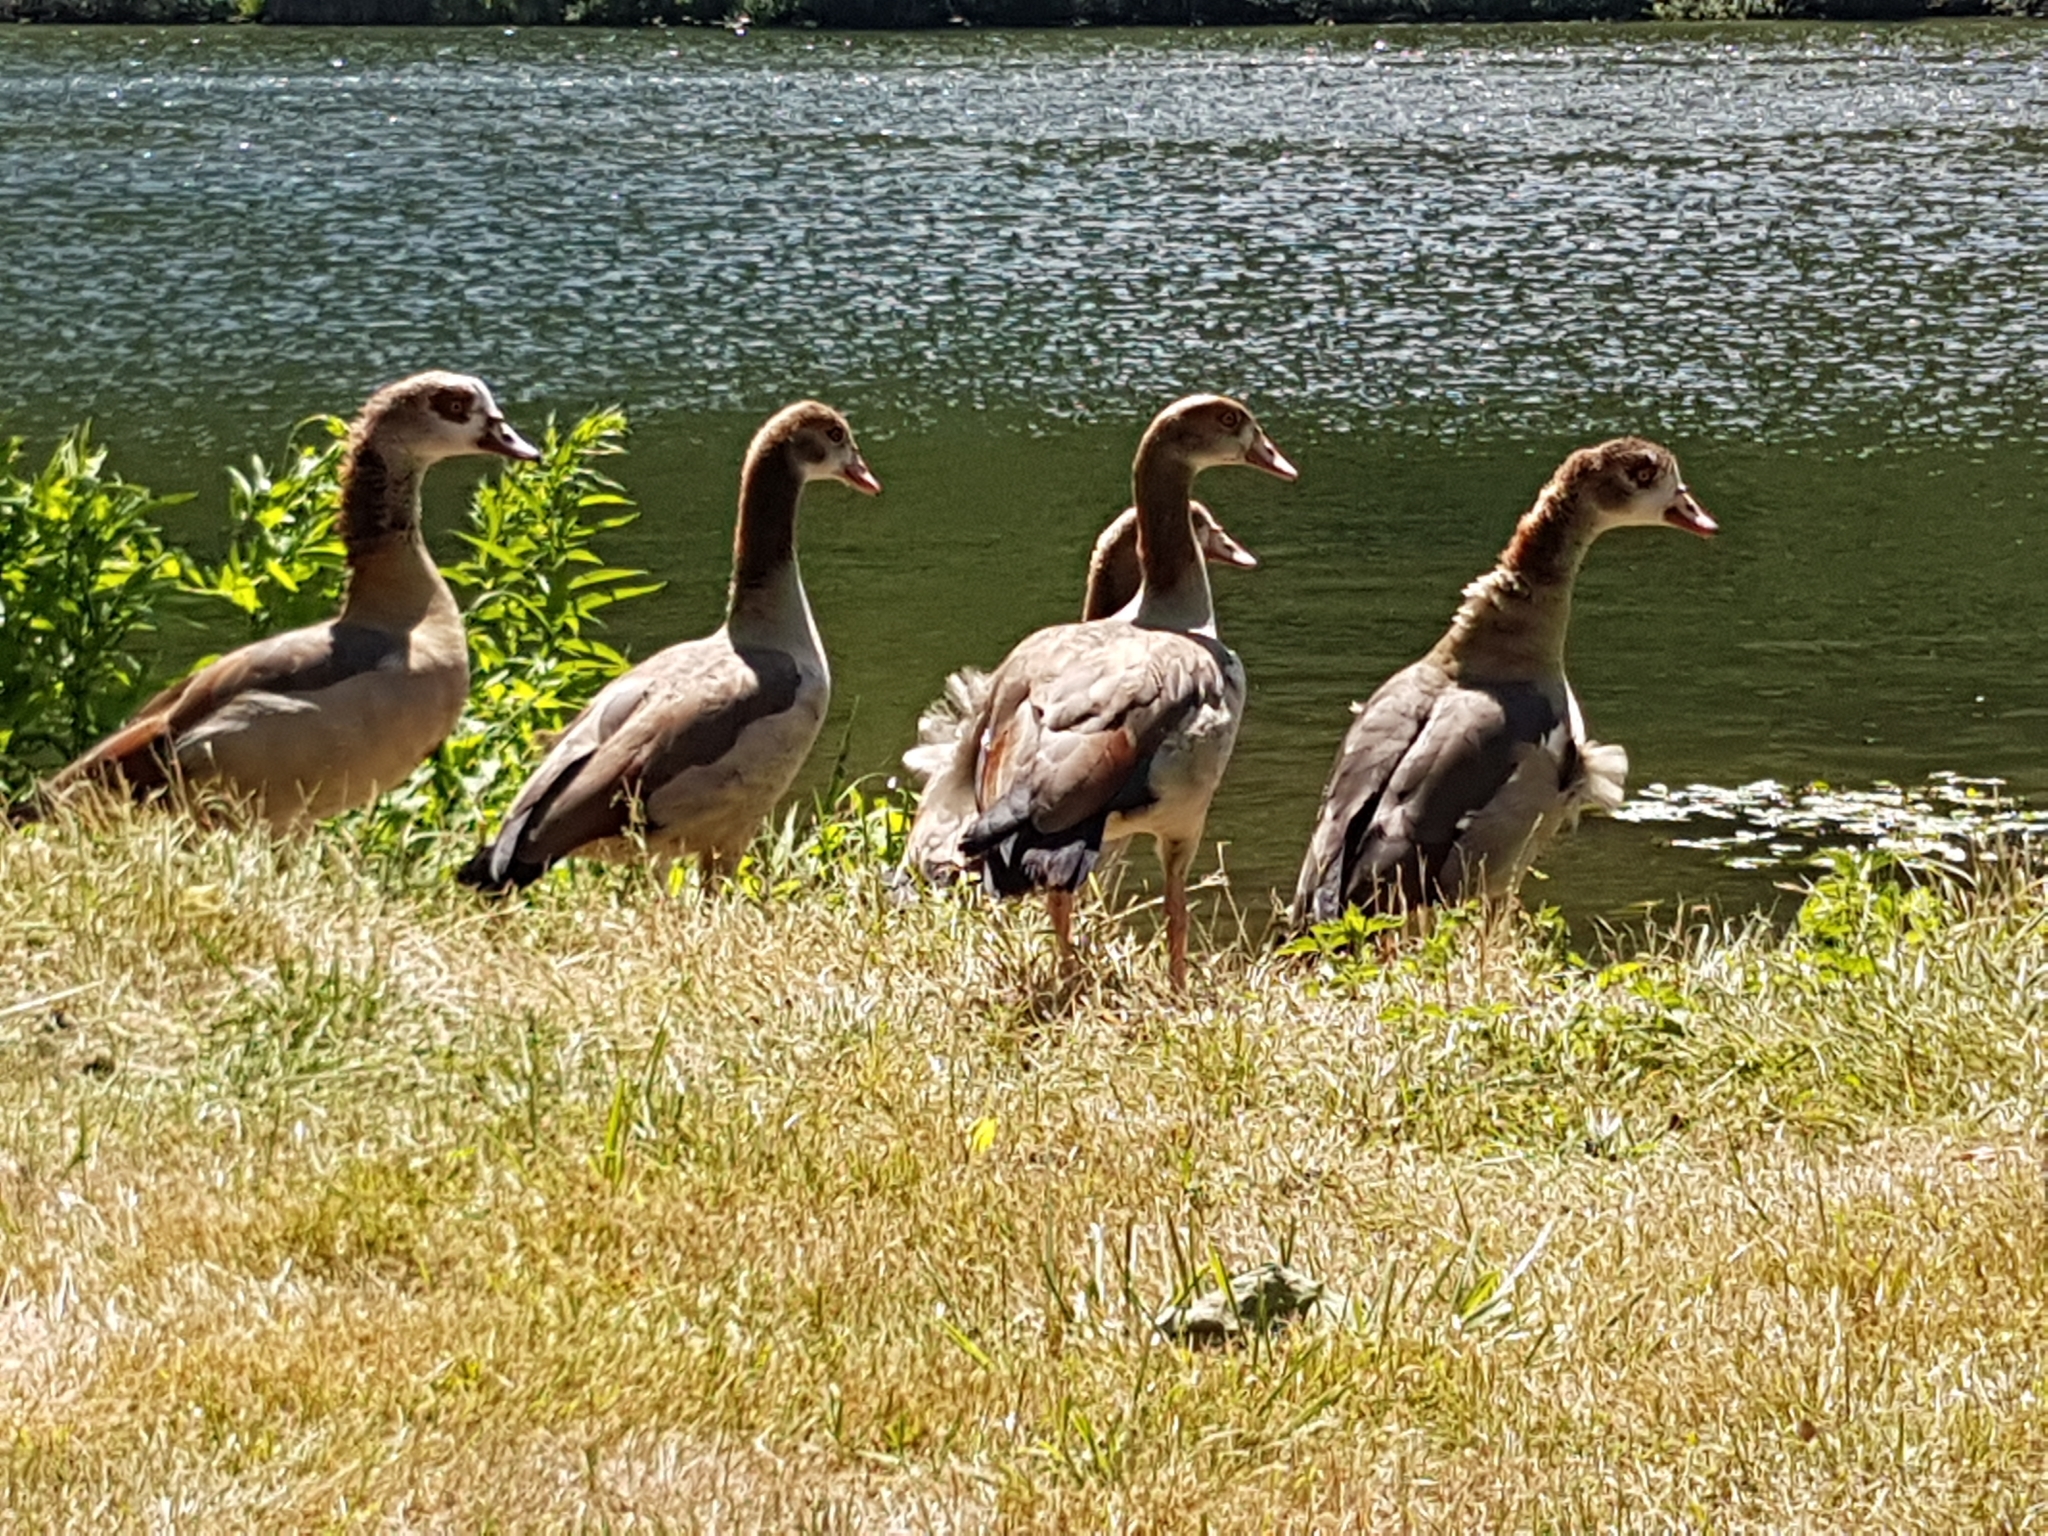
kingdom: Animalia
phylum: Chordata
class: Aves
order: Anseriformes
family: Anatidae
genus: Alopochen
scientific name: Alopochen aegyptiaca
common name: Egyptian goose
